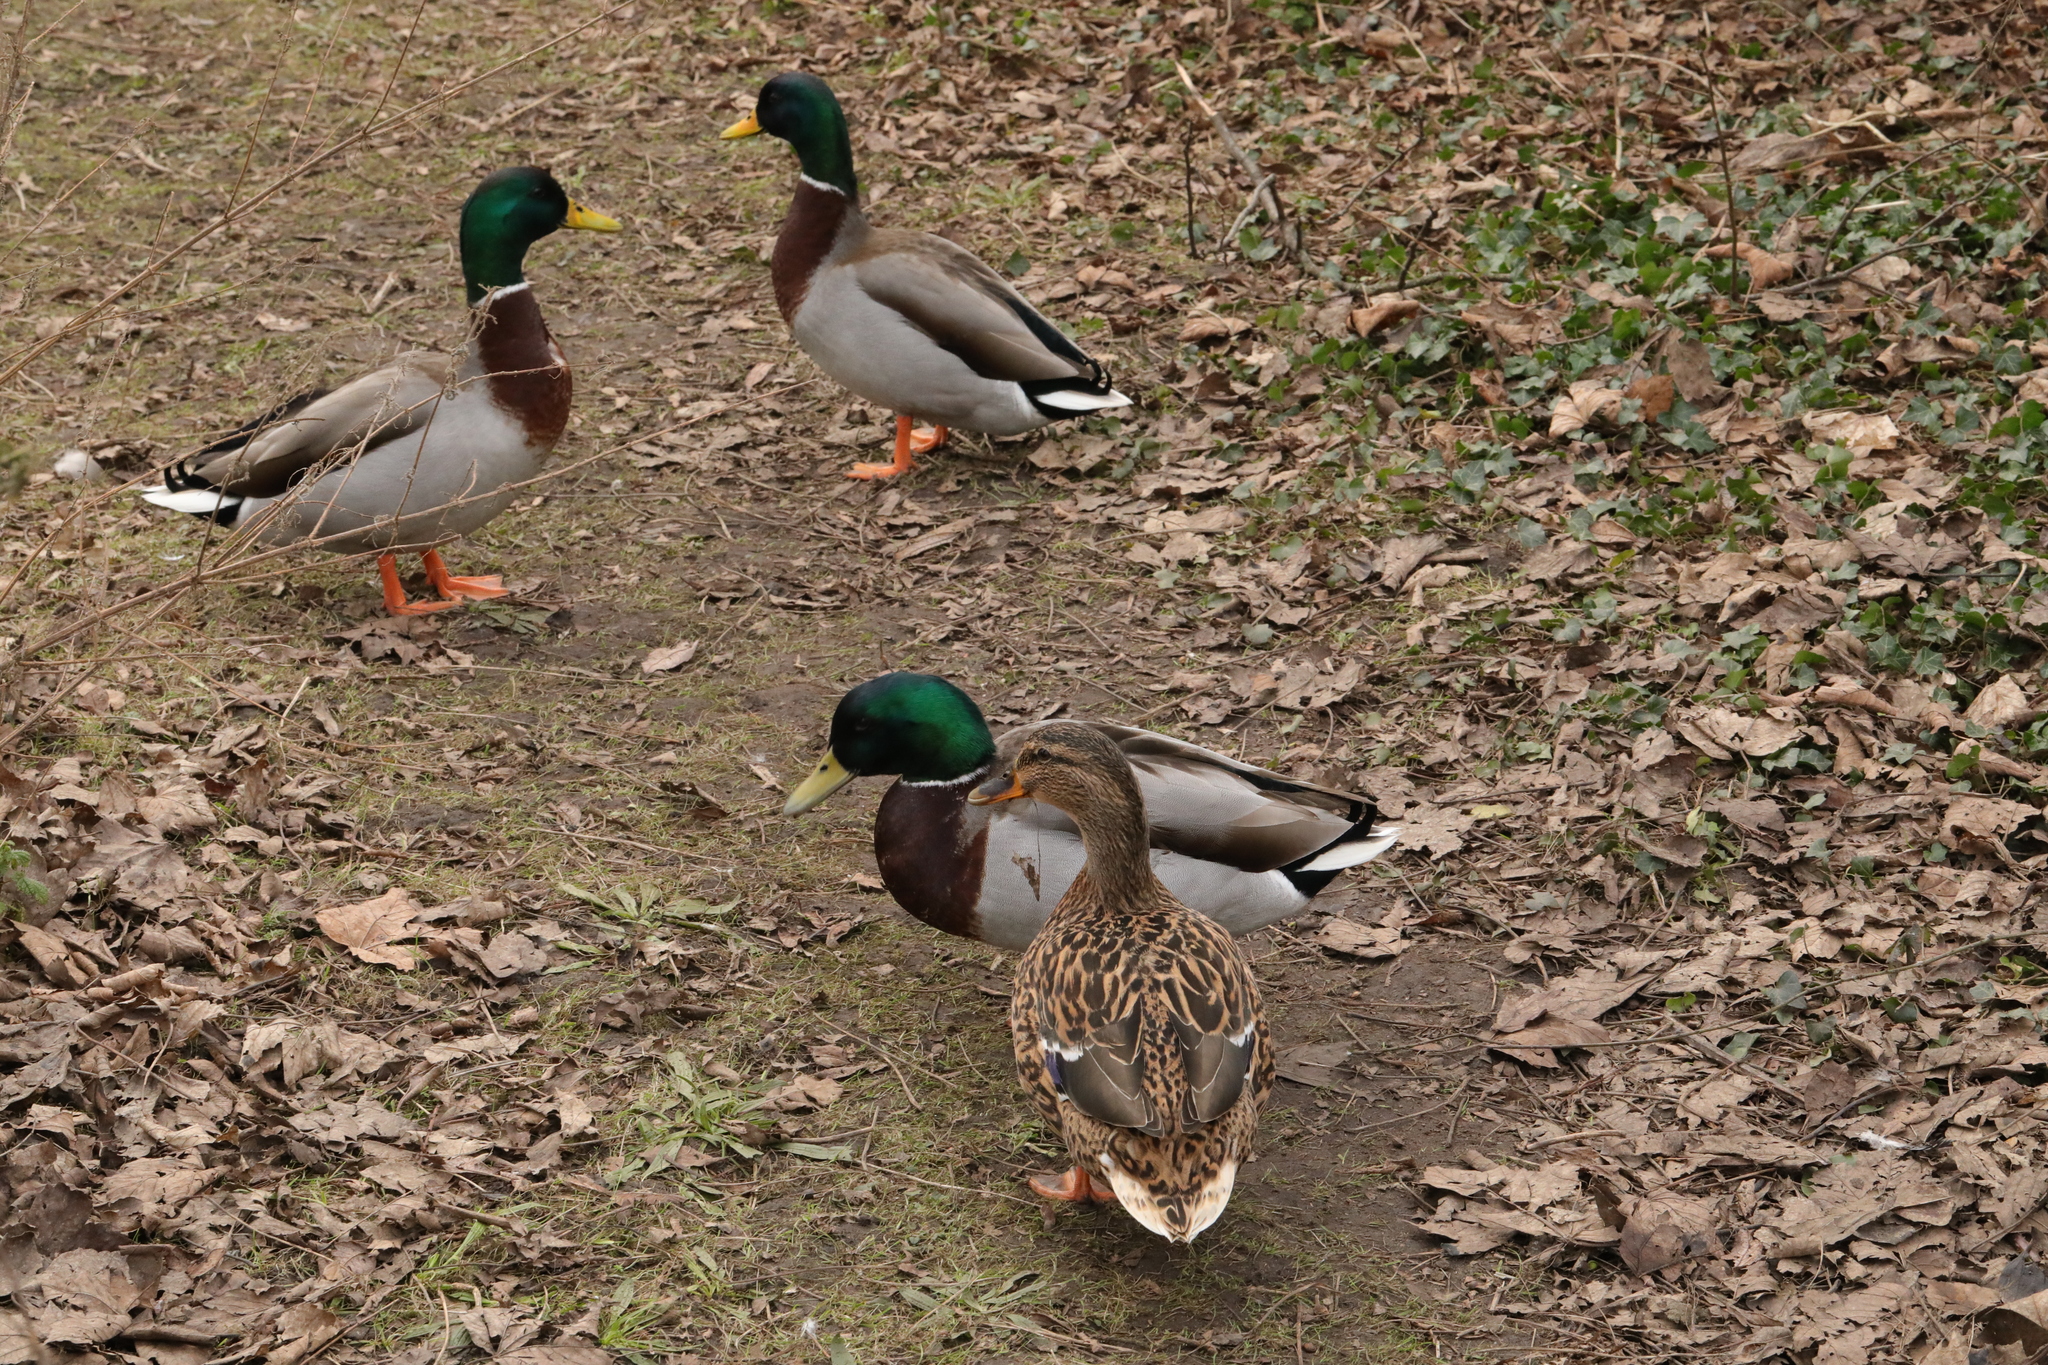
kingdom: Animalia
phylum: Chordata
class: Aves
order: Anseriformes
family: Anatidae
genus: Anas
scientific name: Anas platyrhynchos
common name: Mallard
